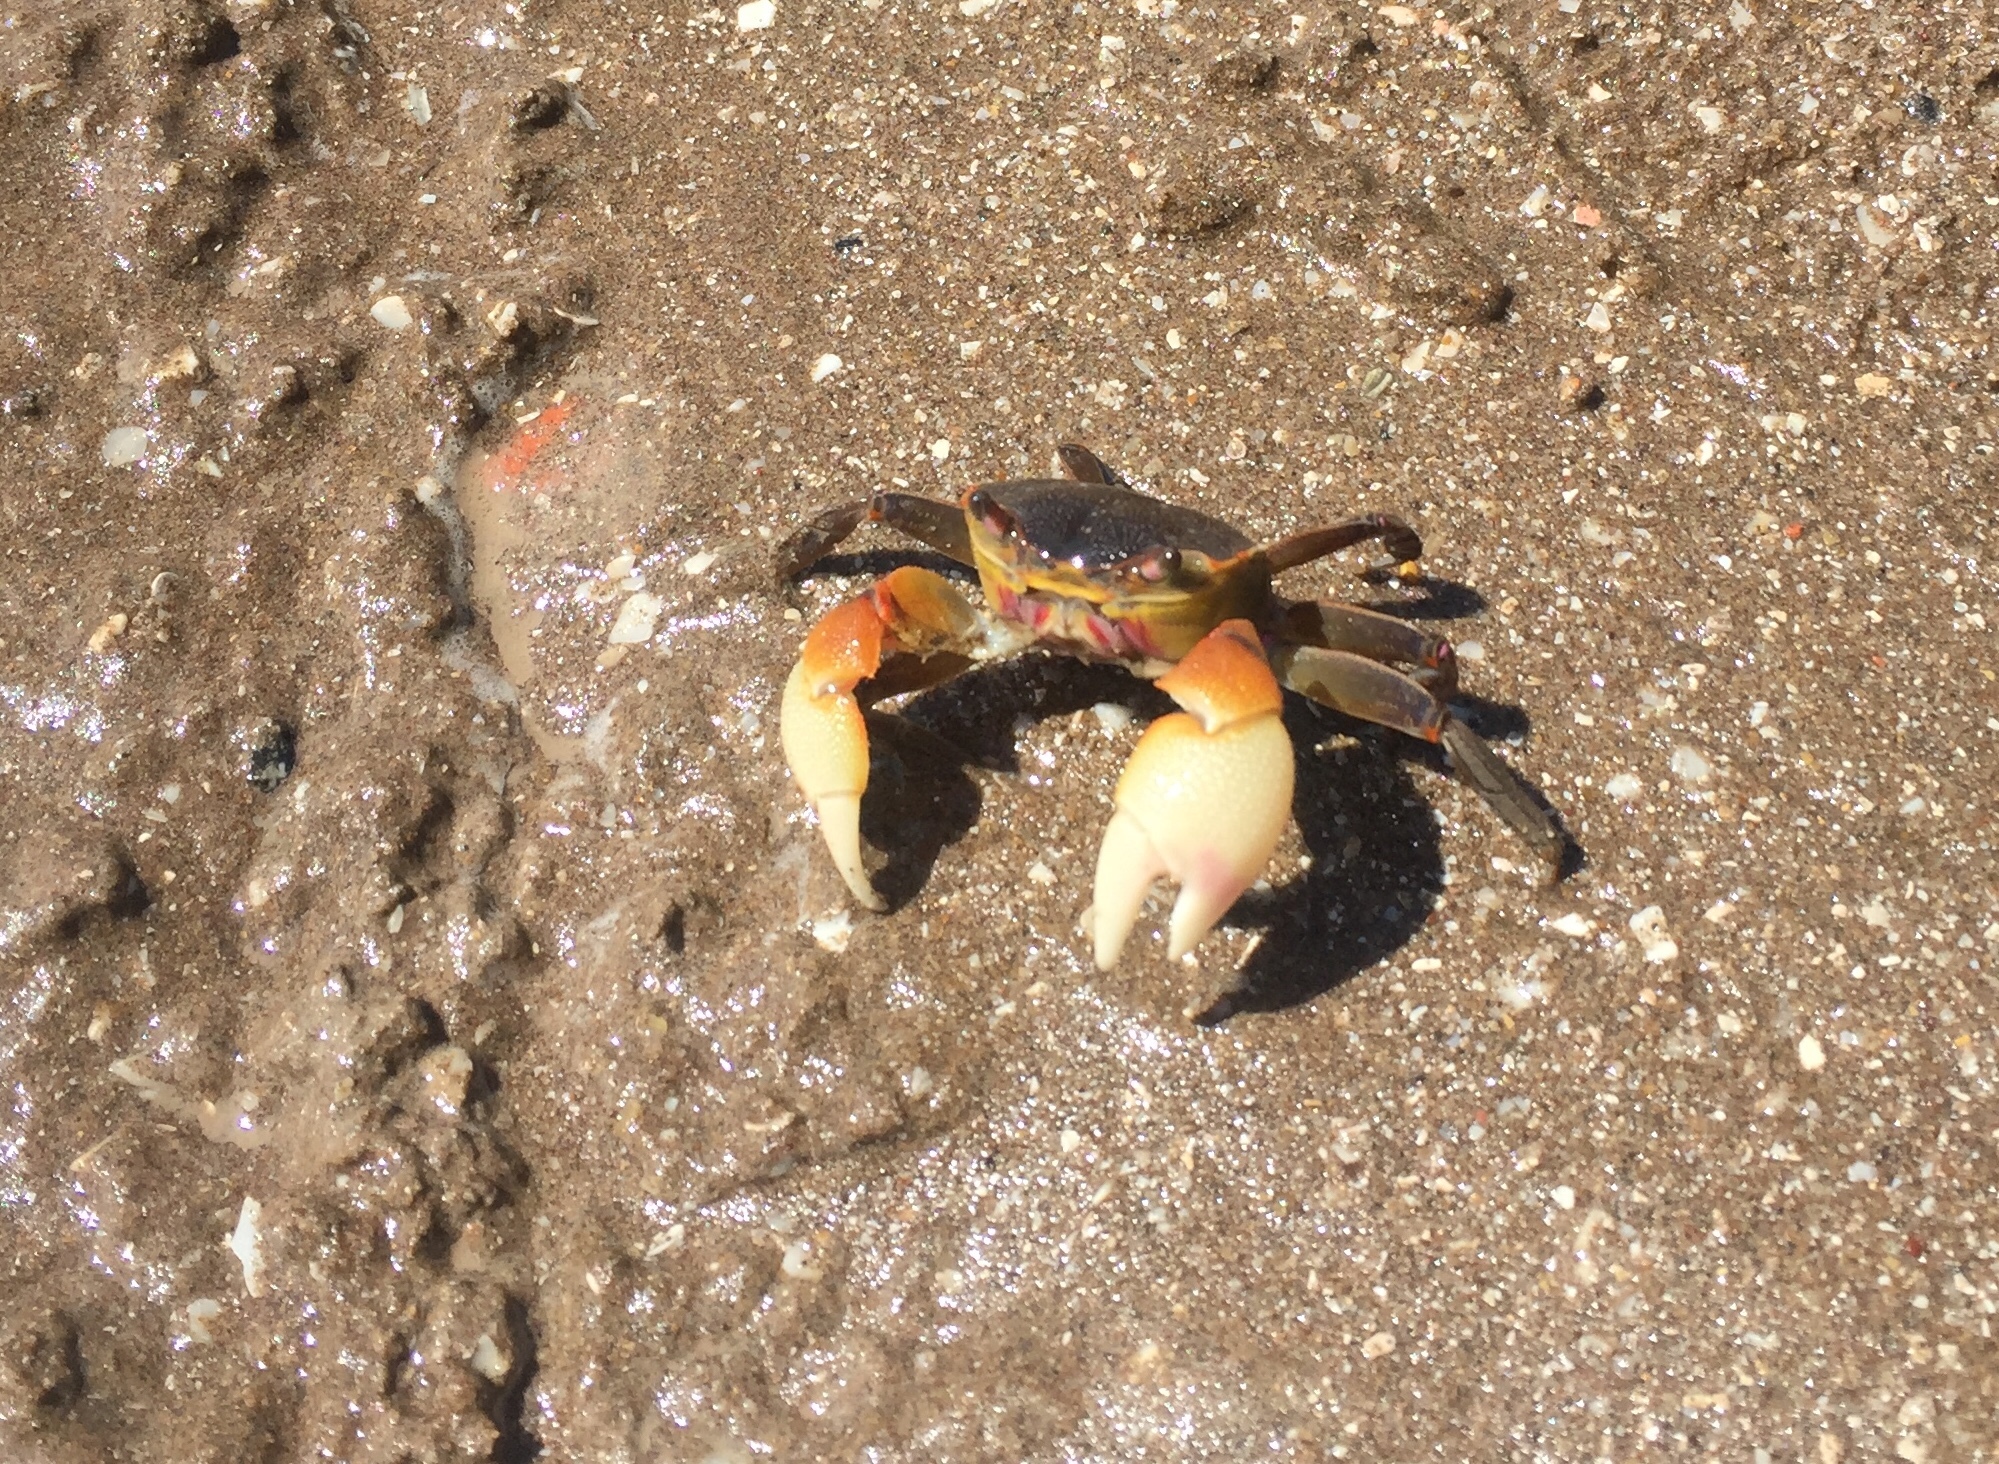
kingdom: Animalia
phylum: Arthropoda
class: Malacostraca
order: Decapoda
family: Varunidae
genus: Neohelice
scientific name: Neohelice granulata
